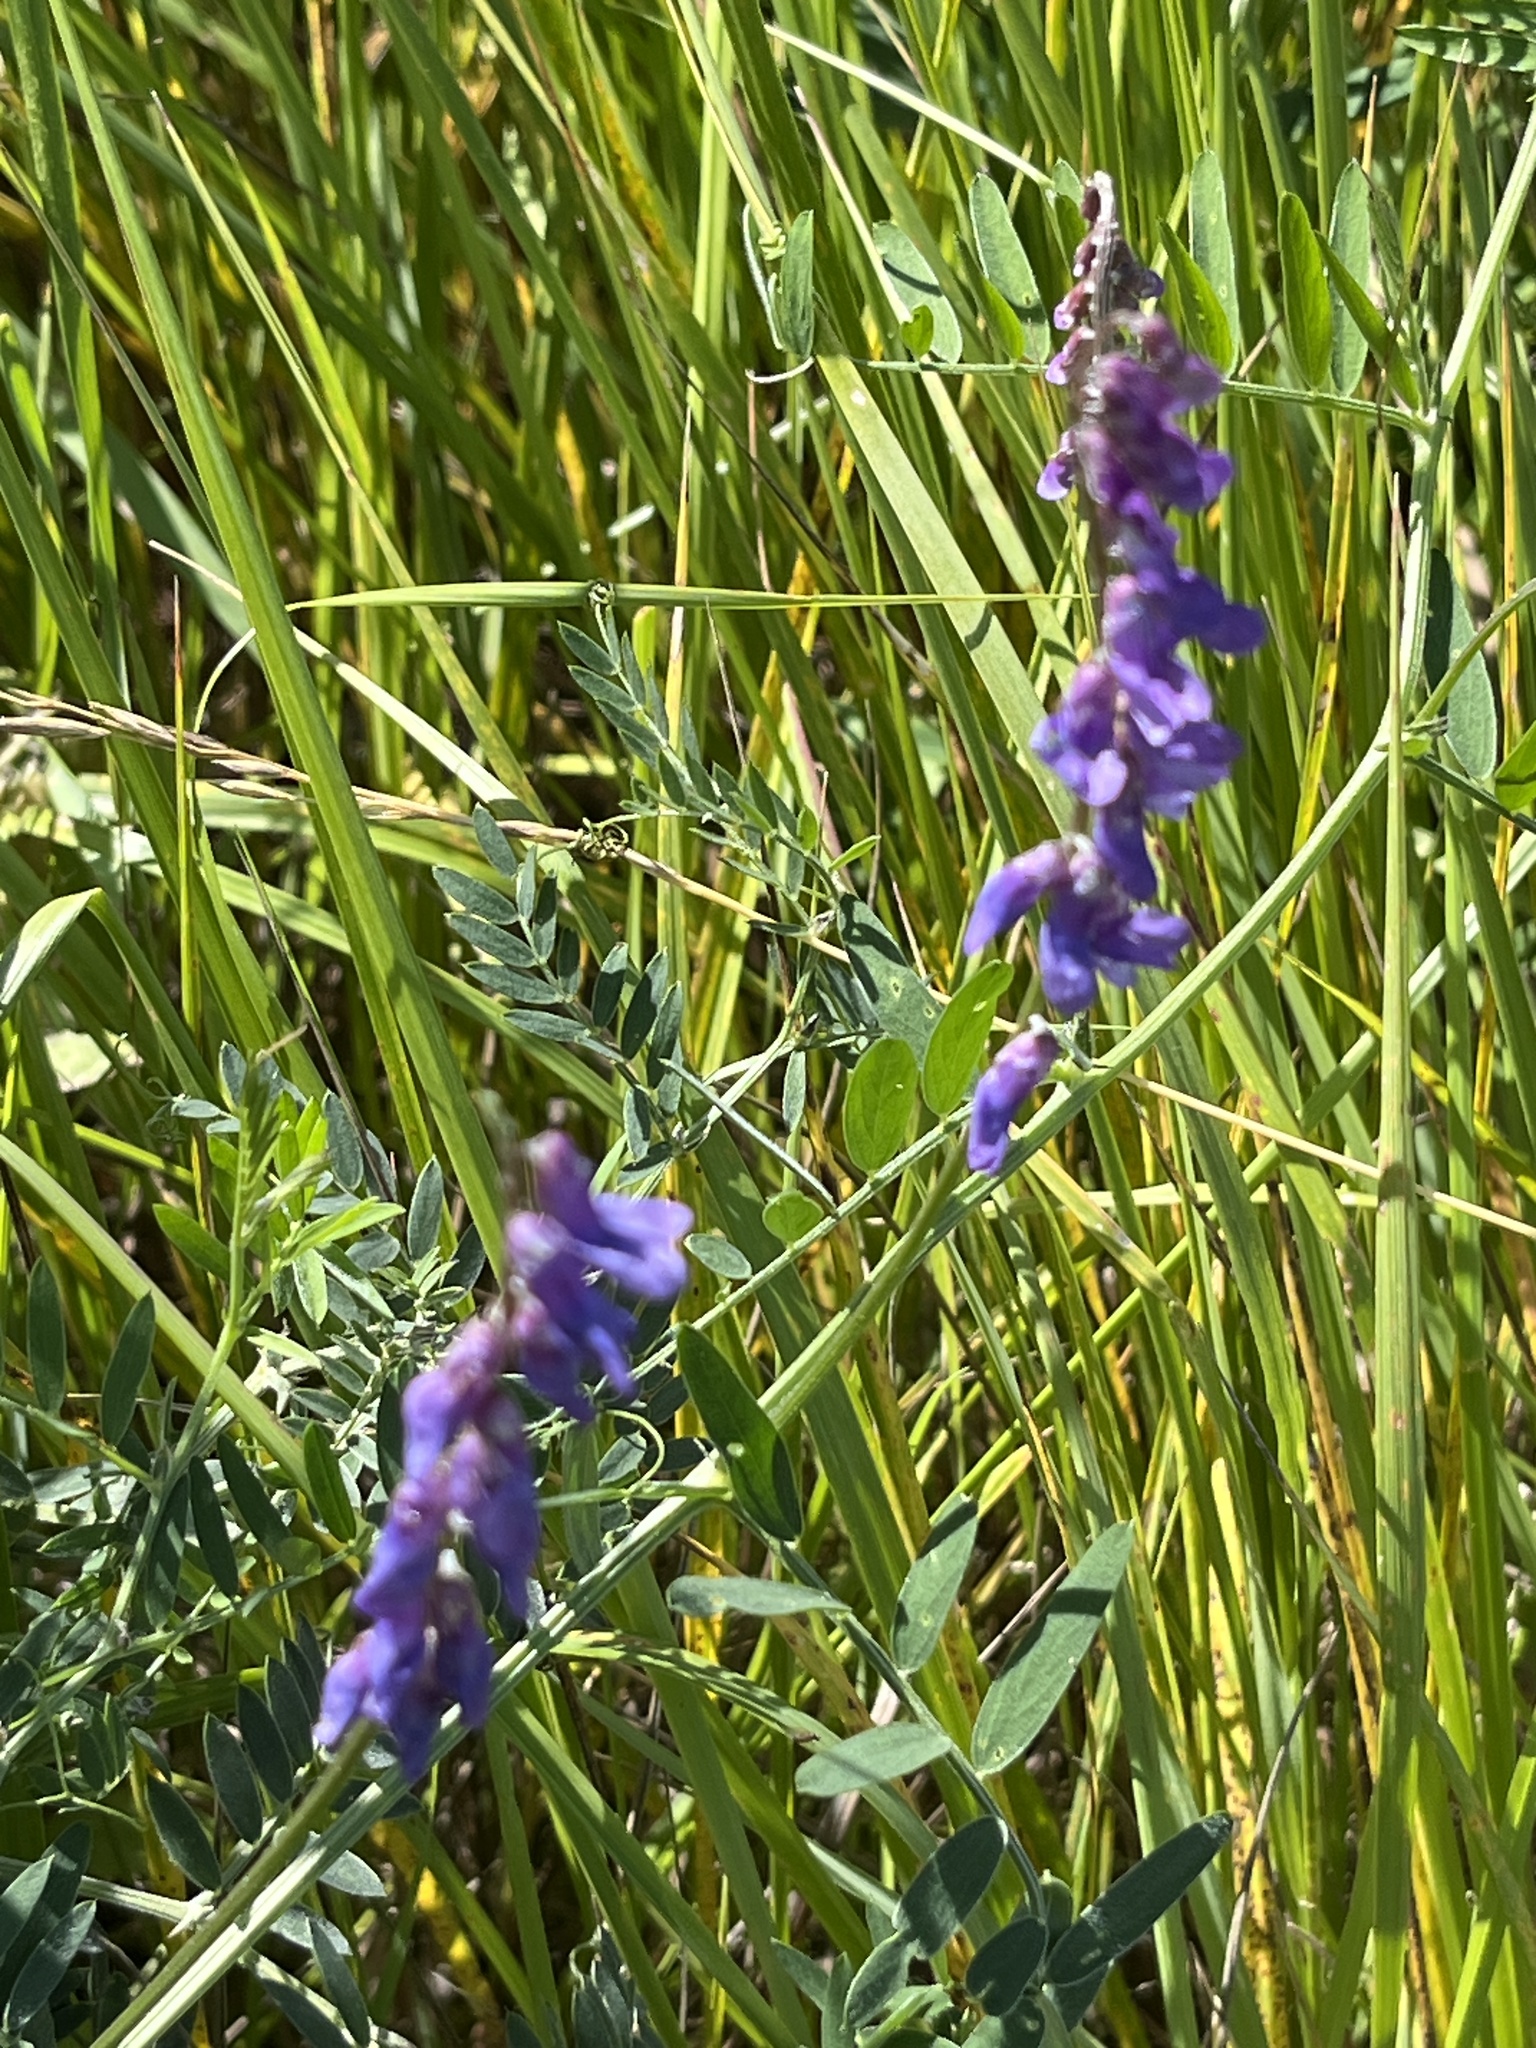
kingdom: Plantae
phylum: Tracheophyta
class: Magnoliopsida
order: Fabales
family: Fabaceae
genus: Vicia
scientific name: Vicia cracca
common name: Bird vetch
